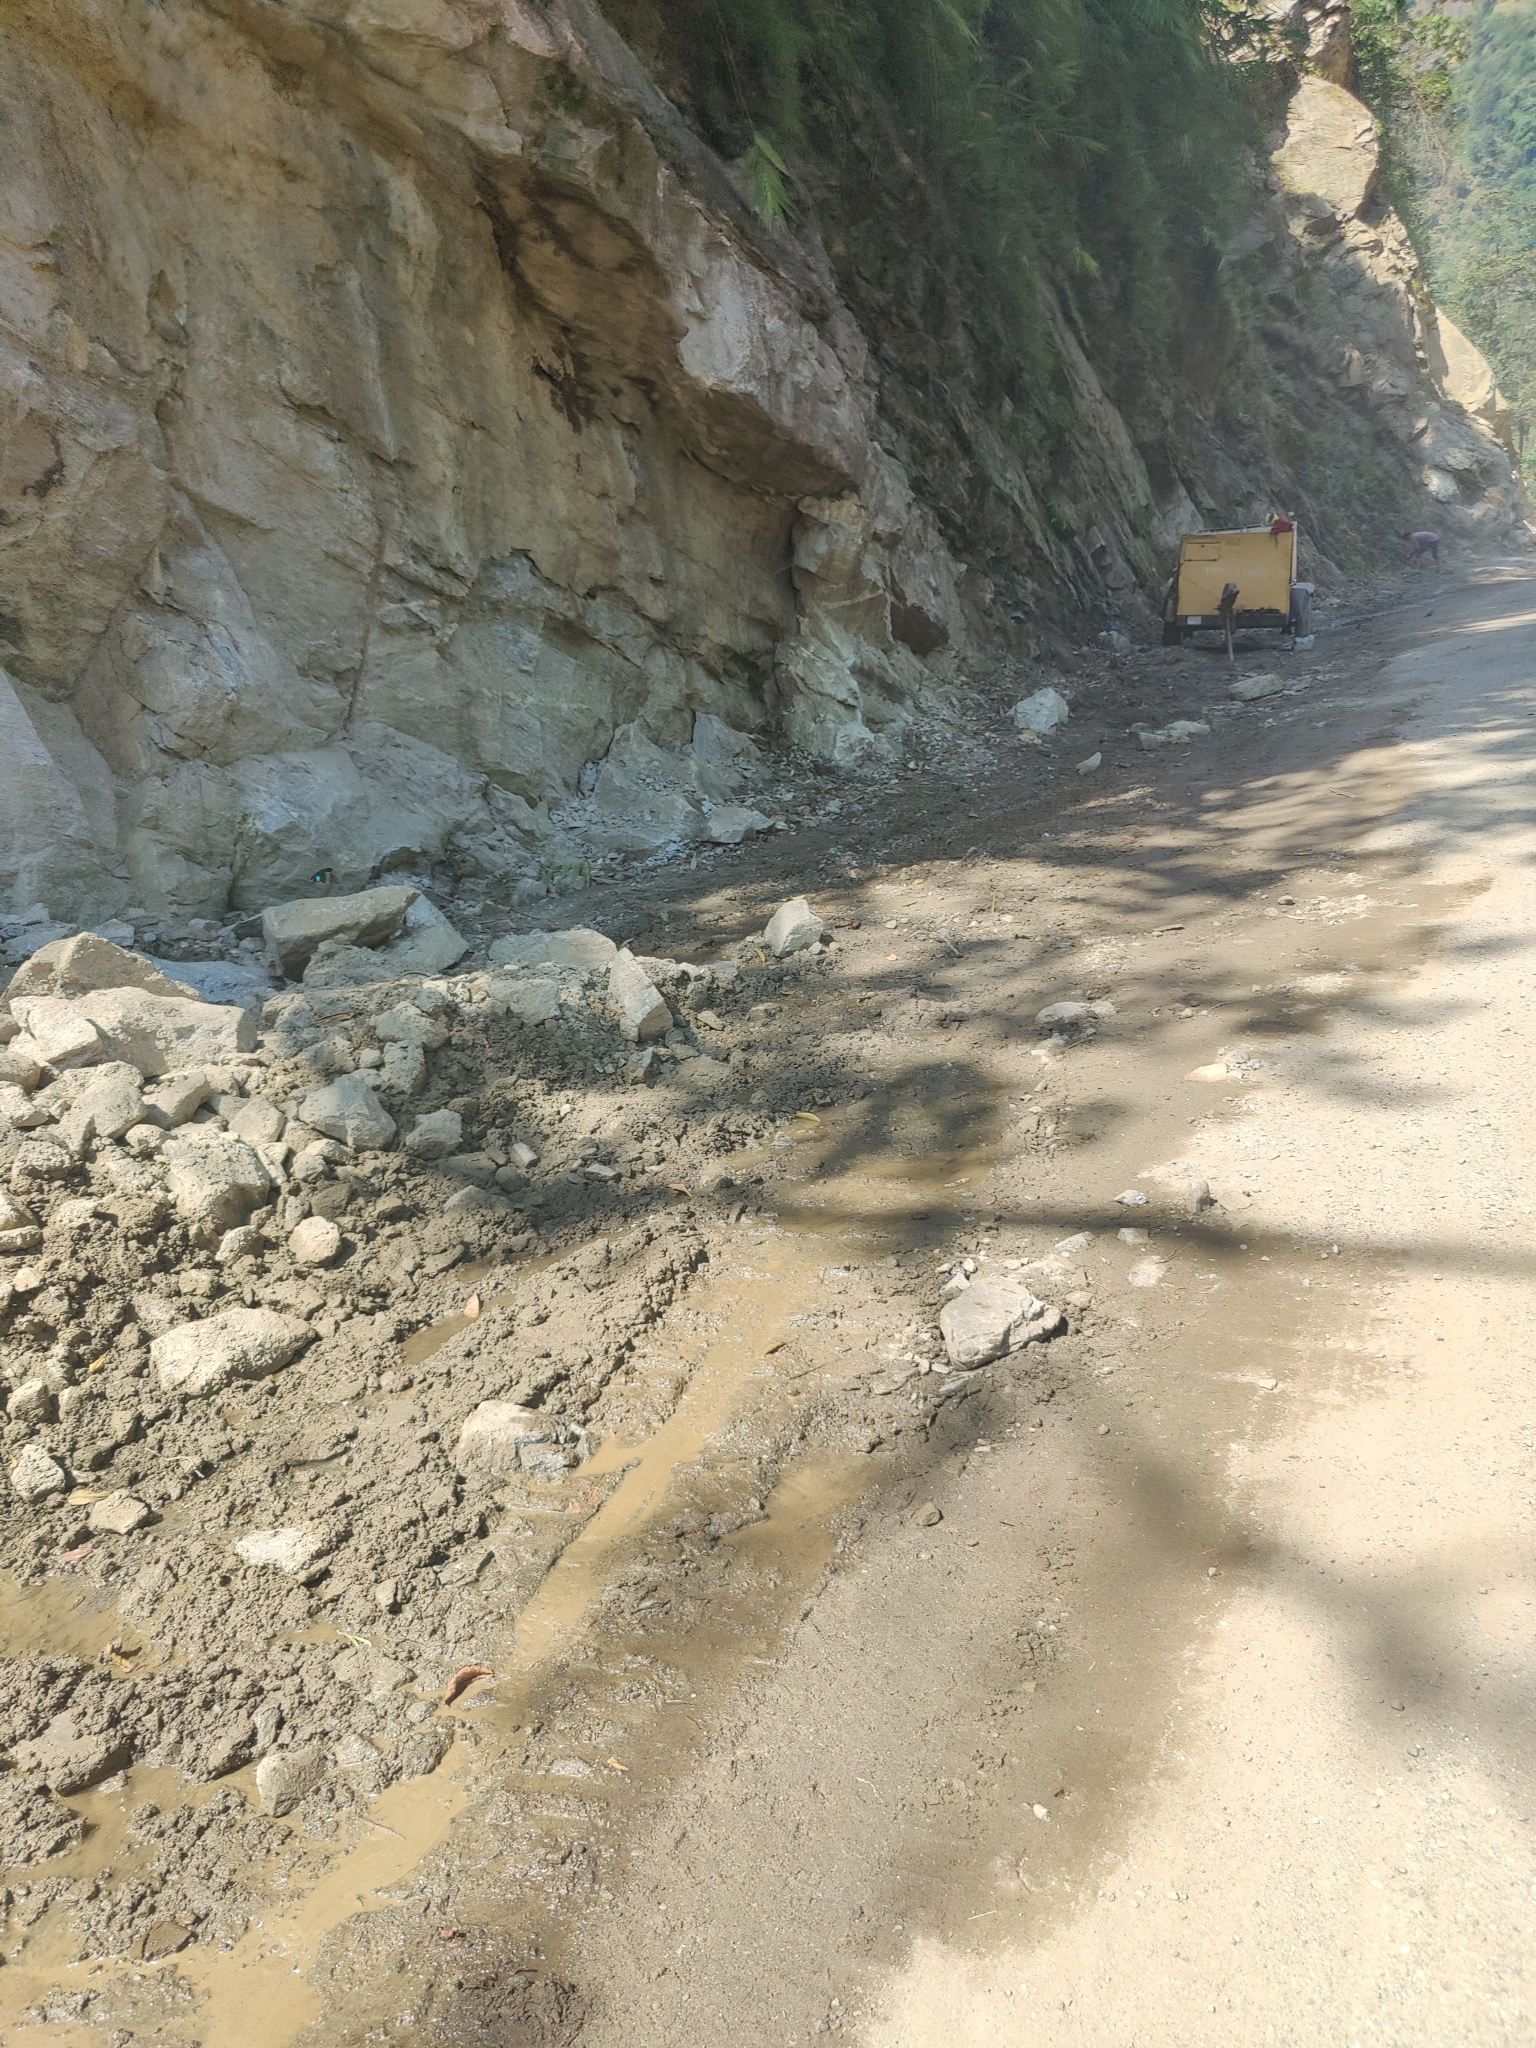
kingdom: Animalia
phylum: Arthropoda
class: Insecta
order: Lepidoptera
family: Papilionidae
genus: Papilio
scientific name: Papilio paris
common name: Paris peacock
